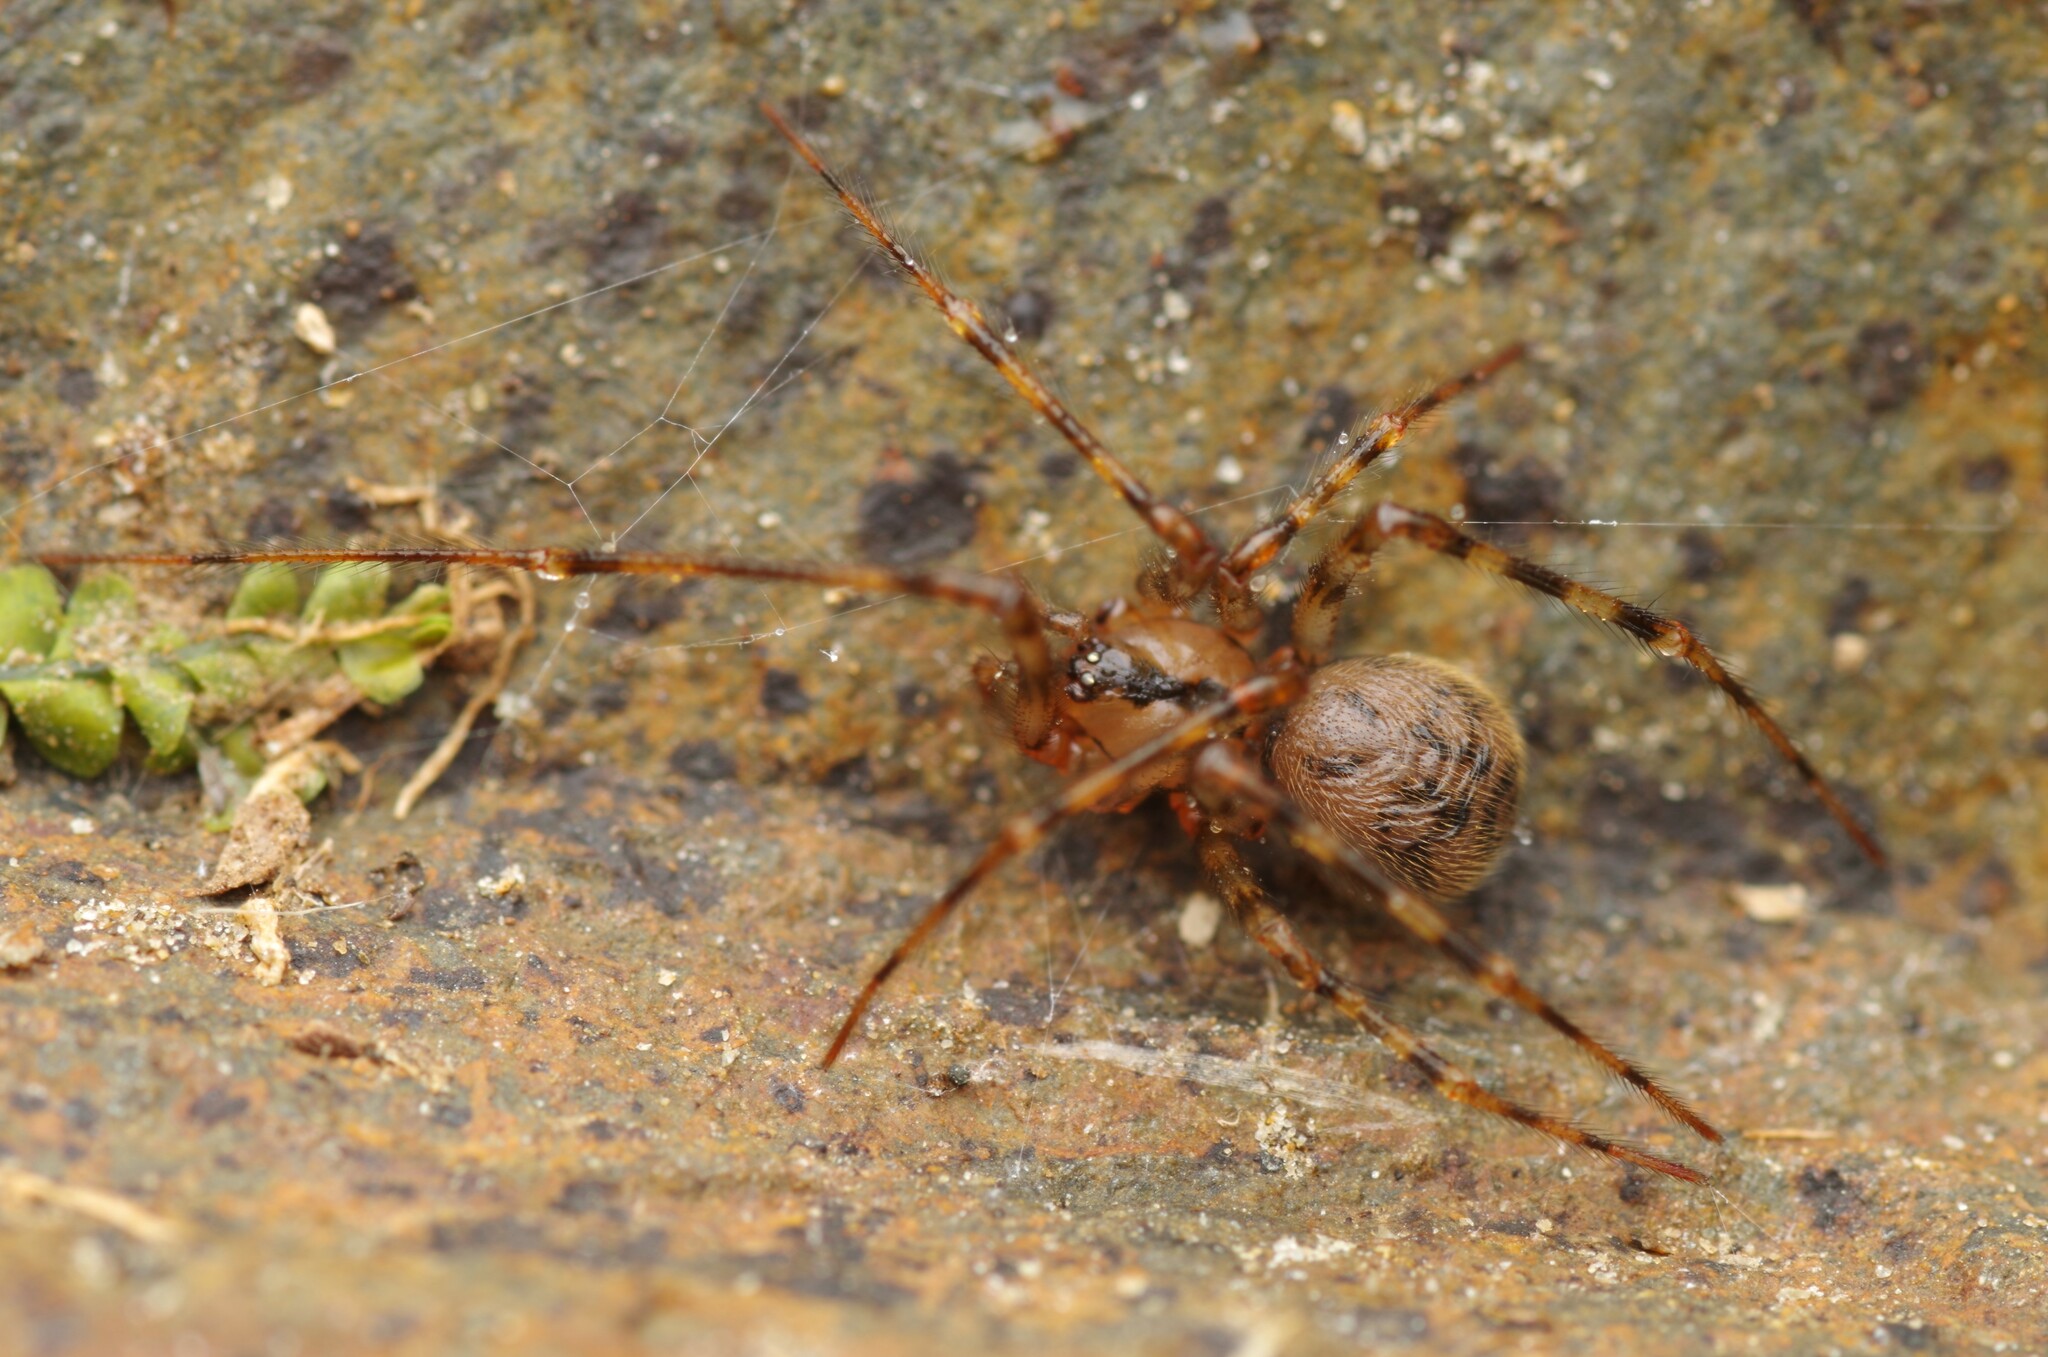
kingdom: Animalia
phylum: Arthropoda
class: Arachnida
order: Araneae
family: Nesticidae
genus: Nesticus
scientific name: Nesticus cellulanus
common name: Comb-footed cellar spider
